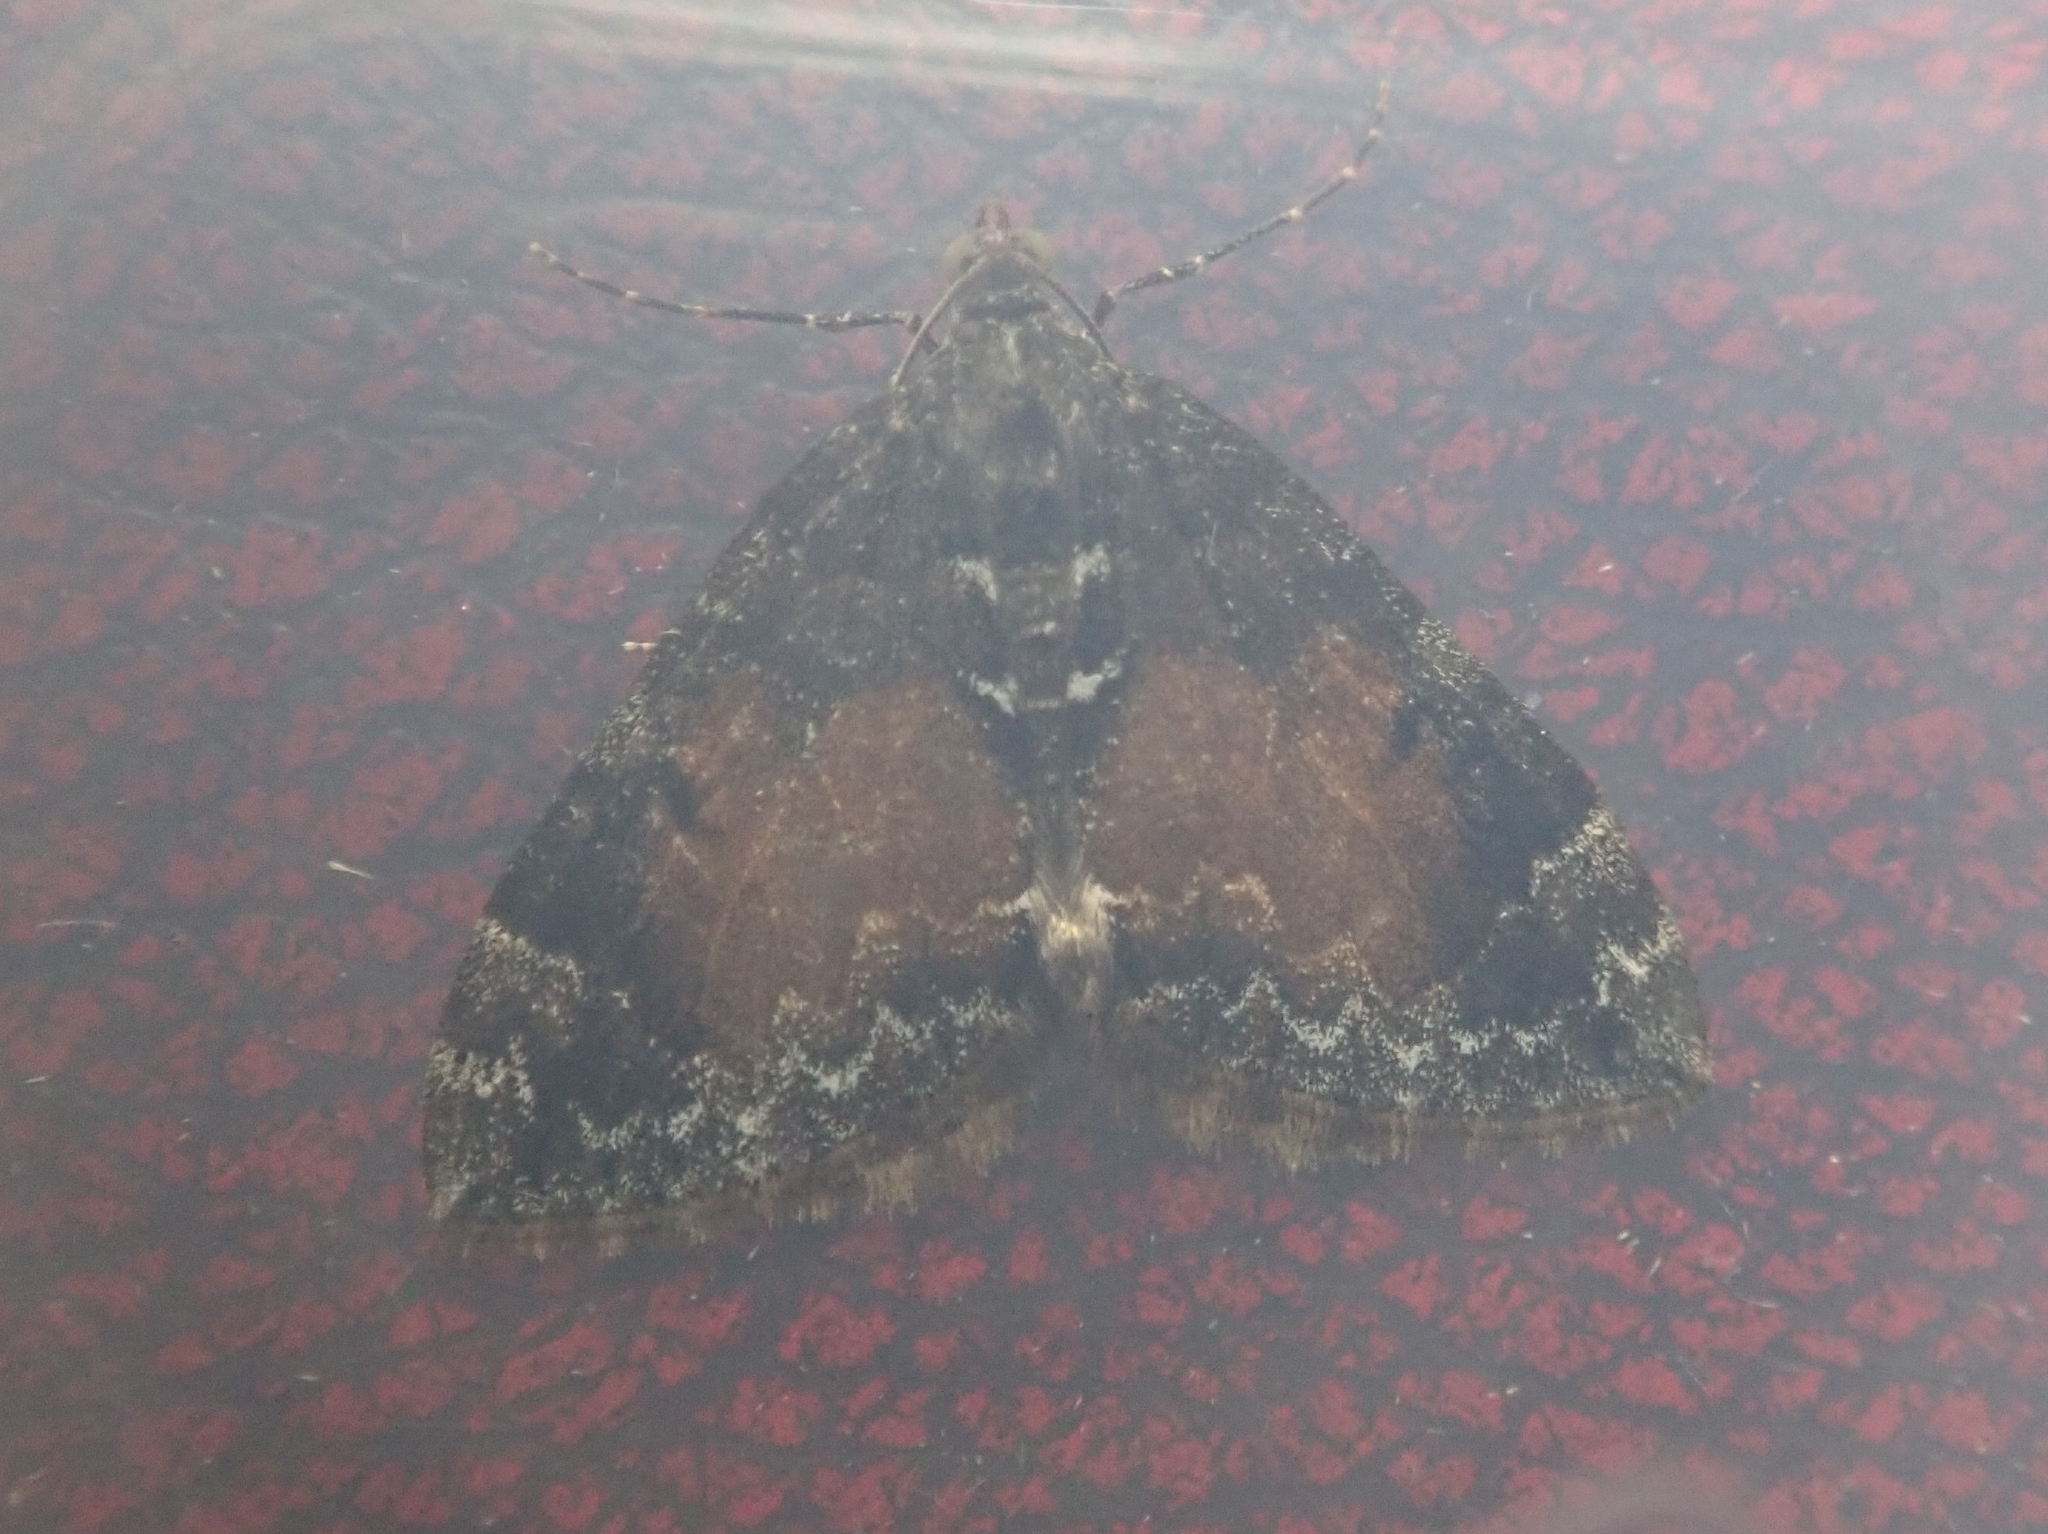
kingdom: Animalia
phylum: Arthropoda
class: Insecta
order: Lepidoptera
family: Geometridae
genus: Dysstroma
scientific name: Dysstroma truncata
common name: Common marbled carpet
